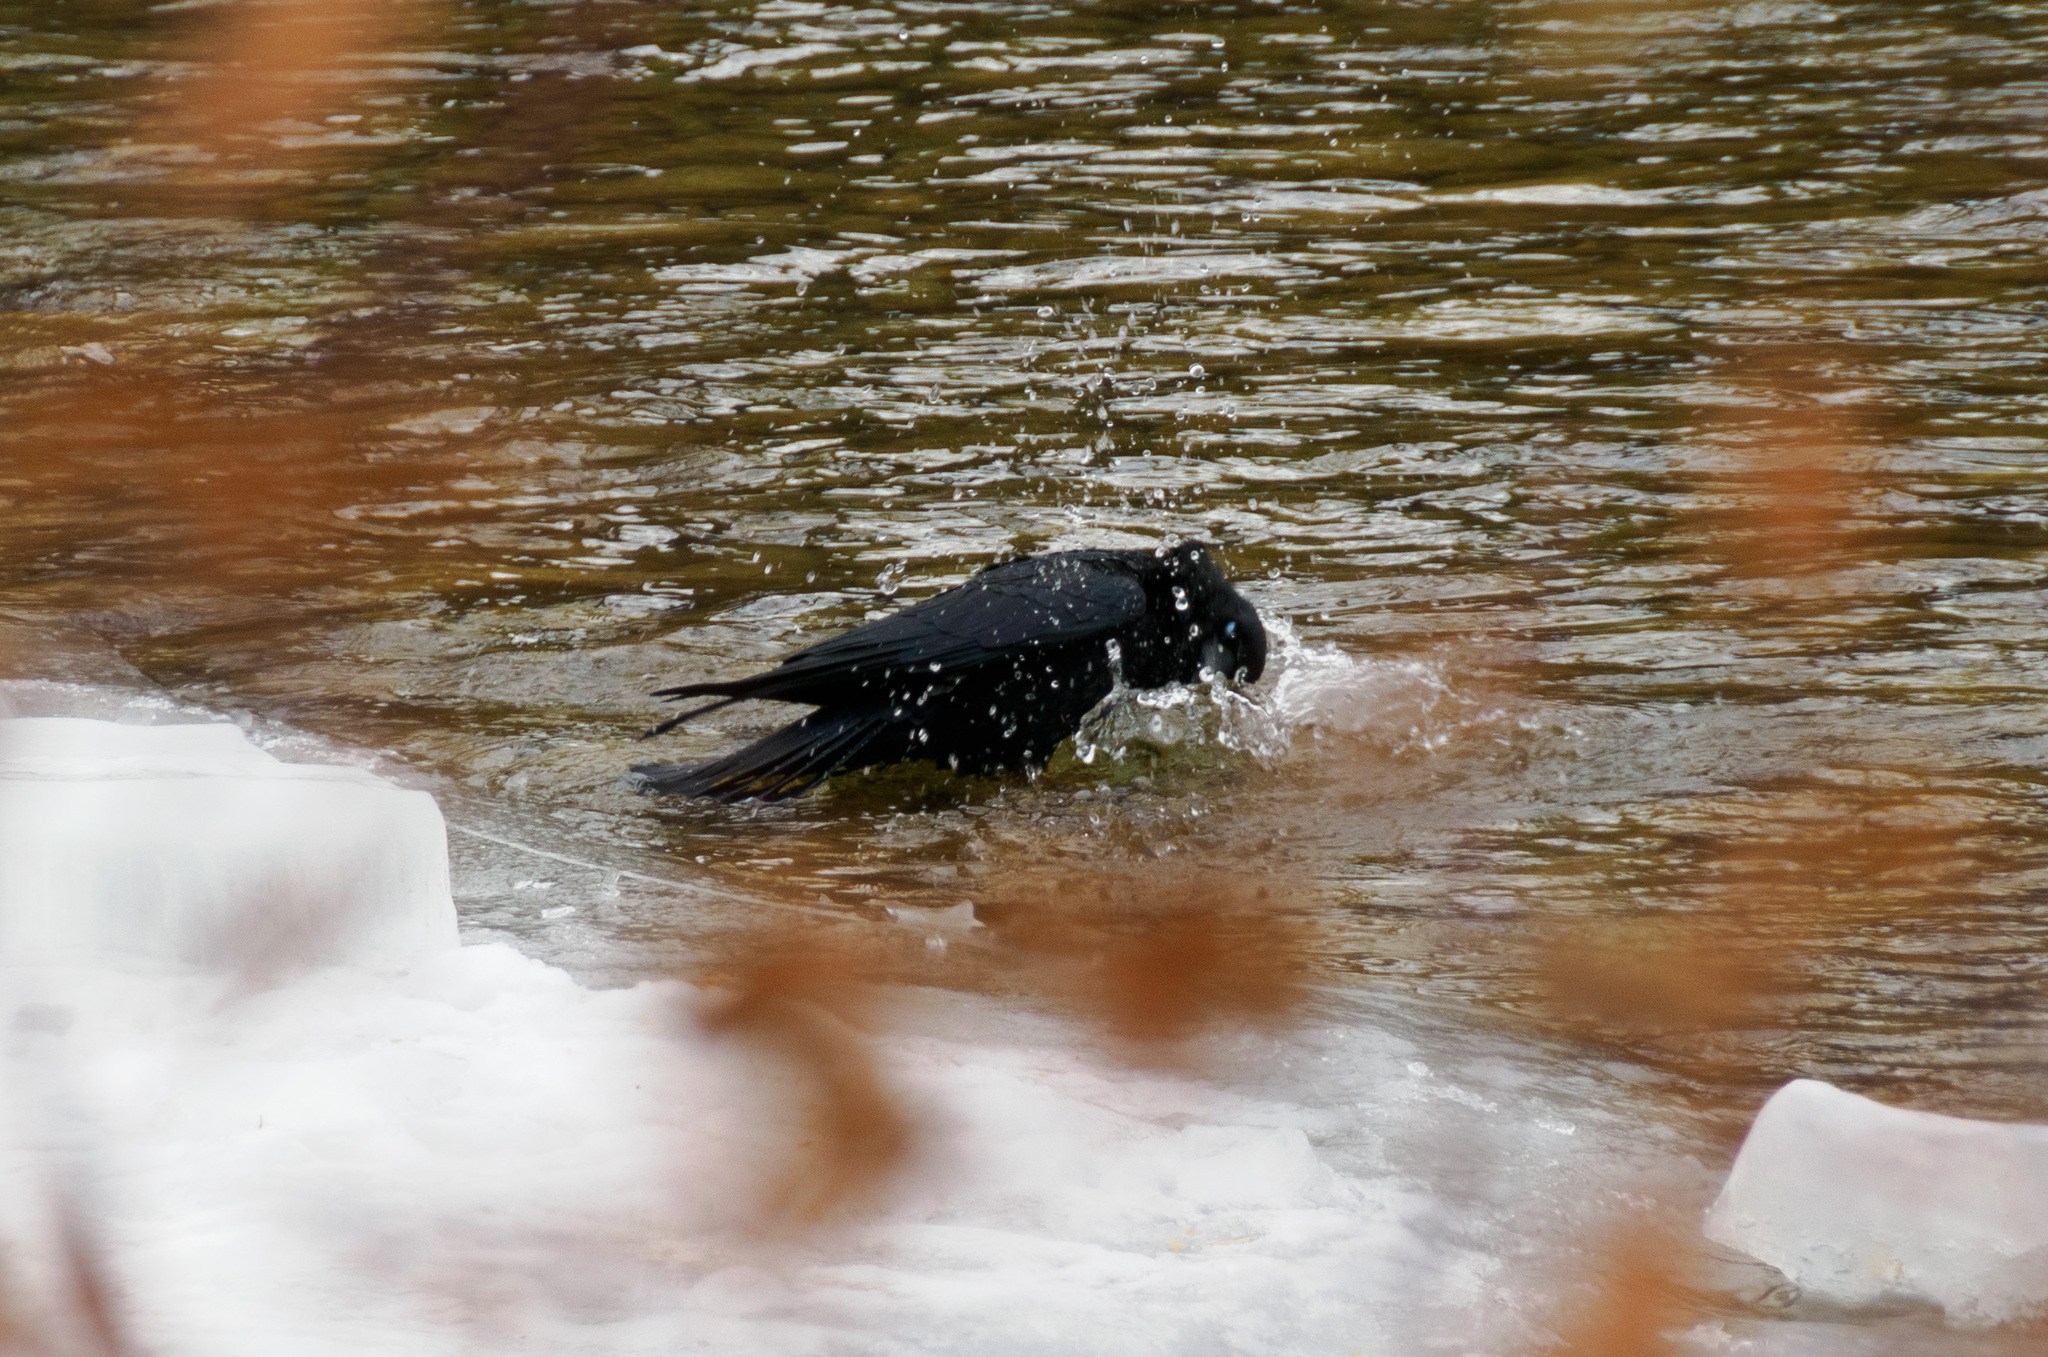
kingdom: Animalia
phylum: Chordata
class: Aves
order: Passeriformes
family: Corvidae
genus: Corvus
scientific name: Corvus brachyrhynchos
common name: American crow
